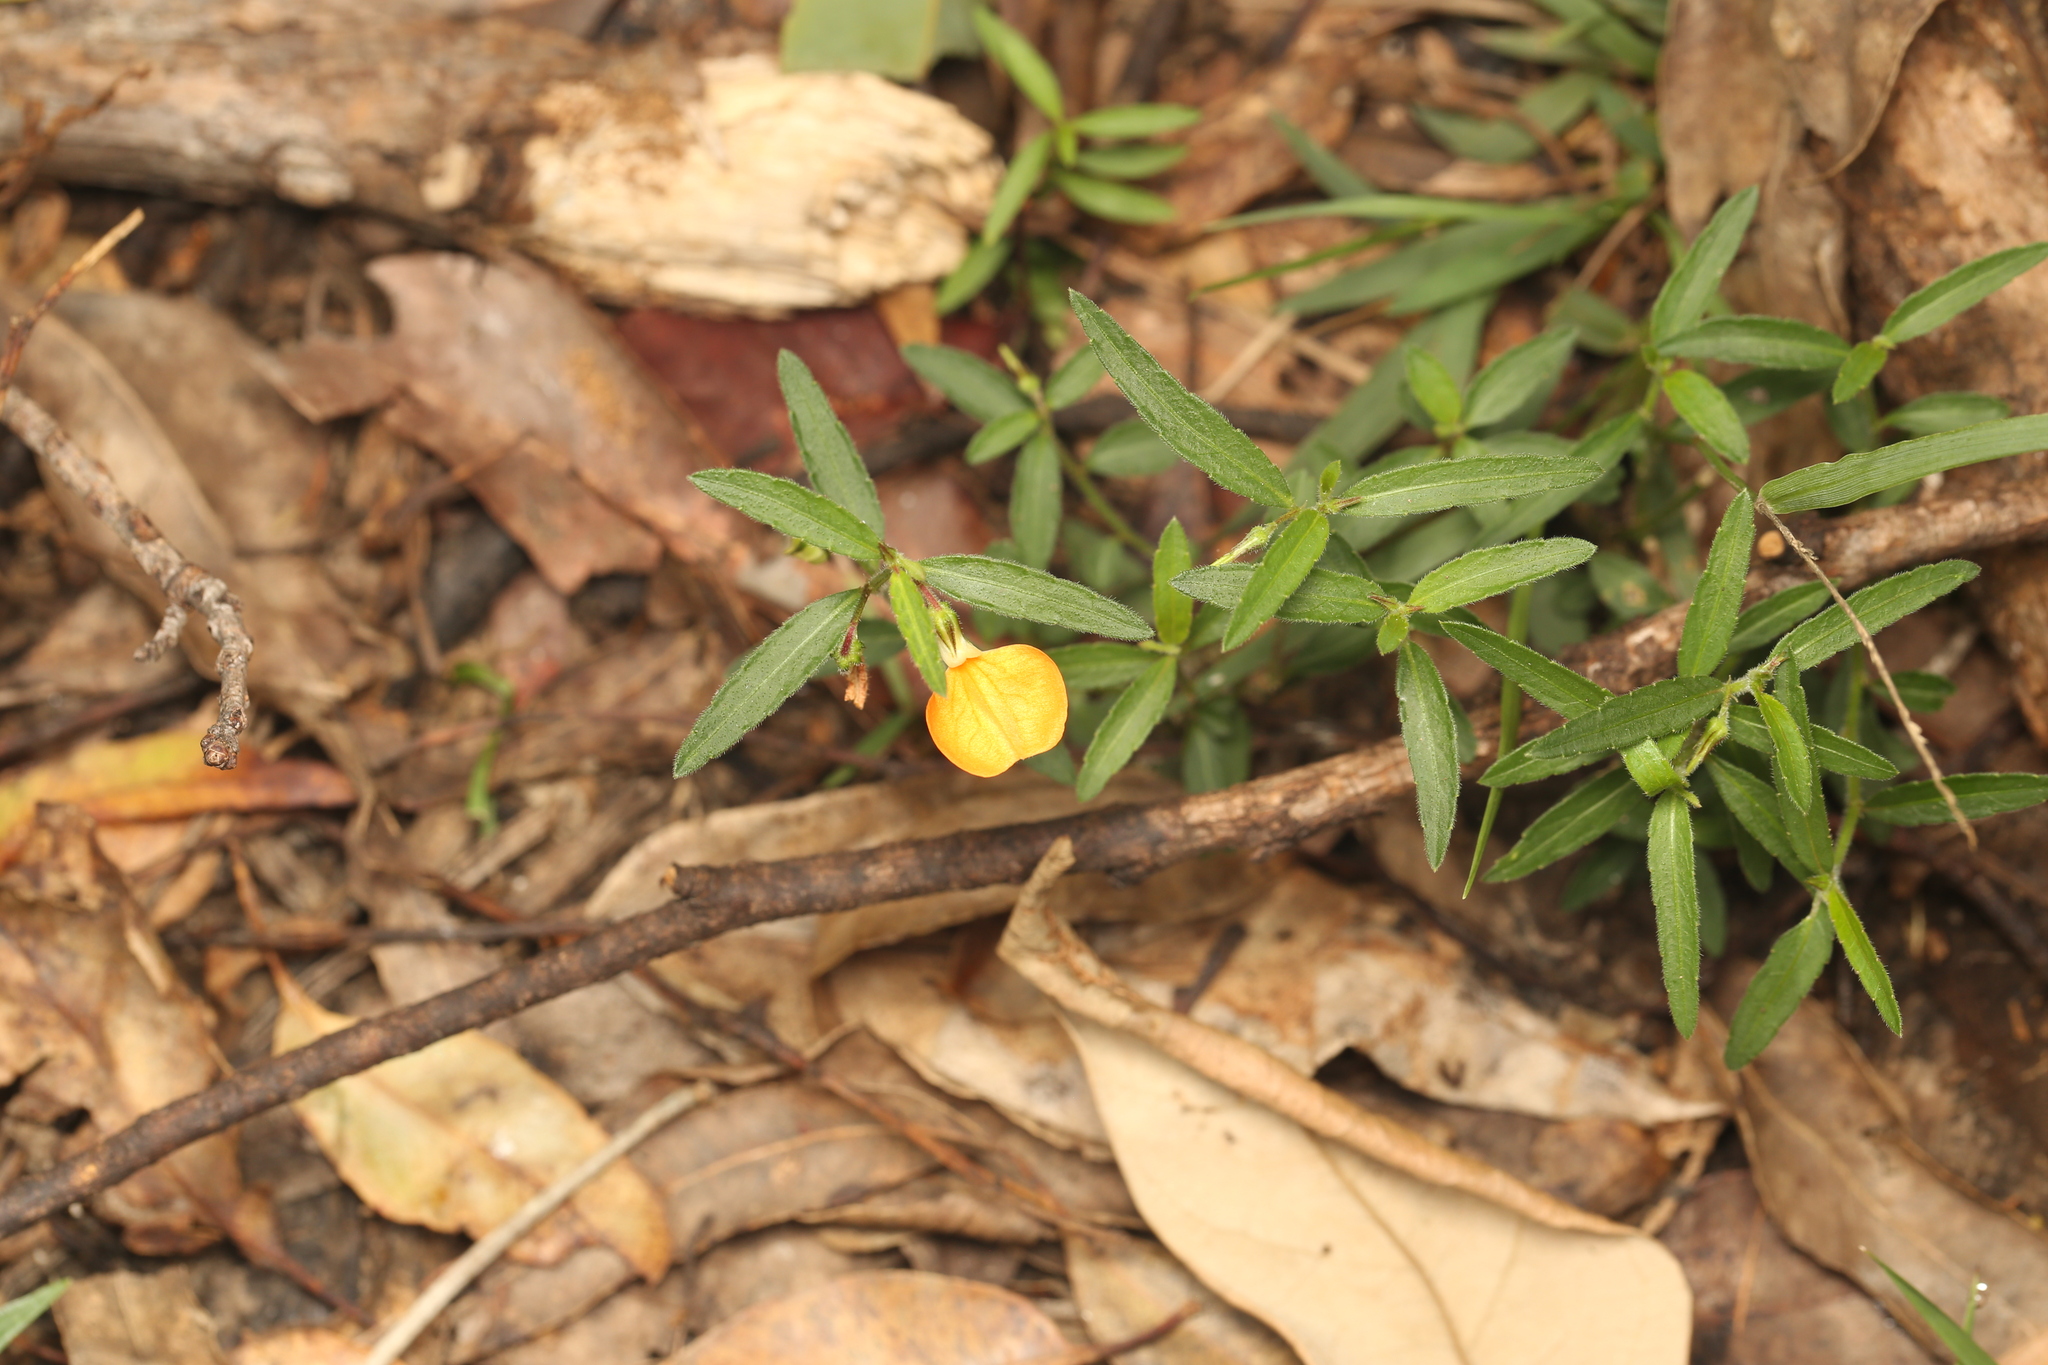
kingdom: Plantae
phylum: Tracheophyta
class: Magnoliopsida
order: Malpighiales
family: Violaceae
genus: Pigea
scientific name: Pigea stellarioides
